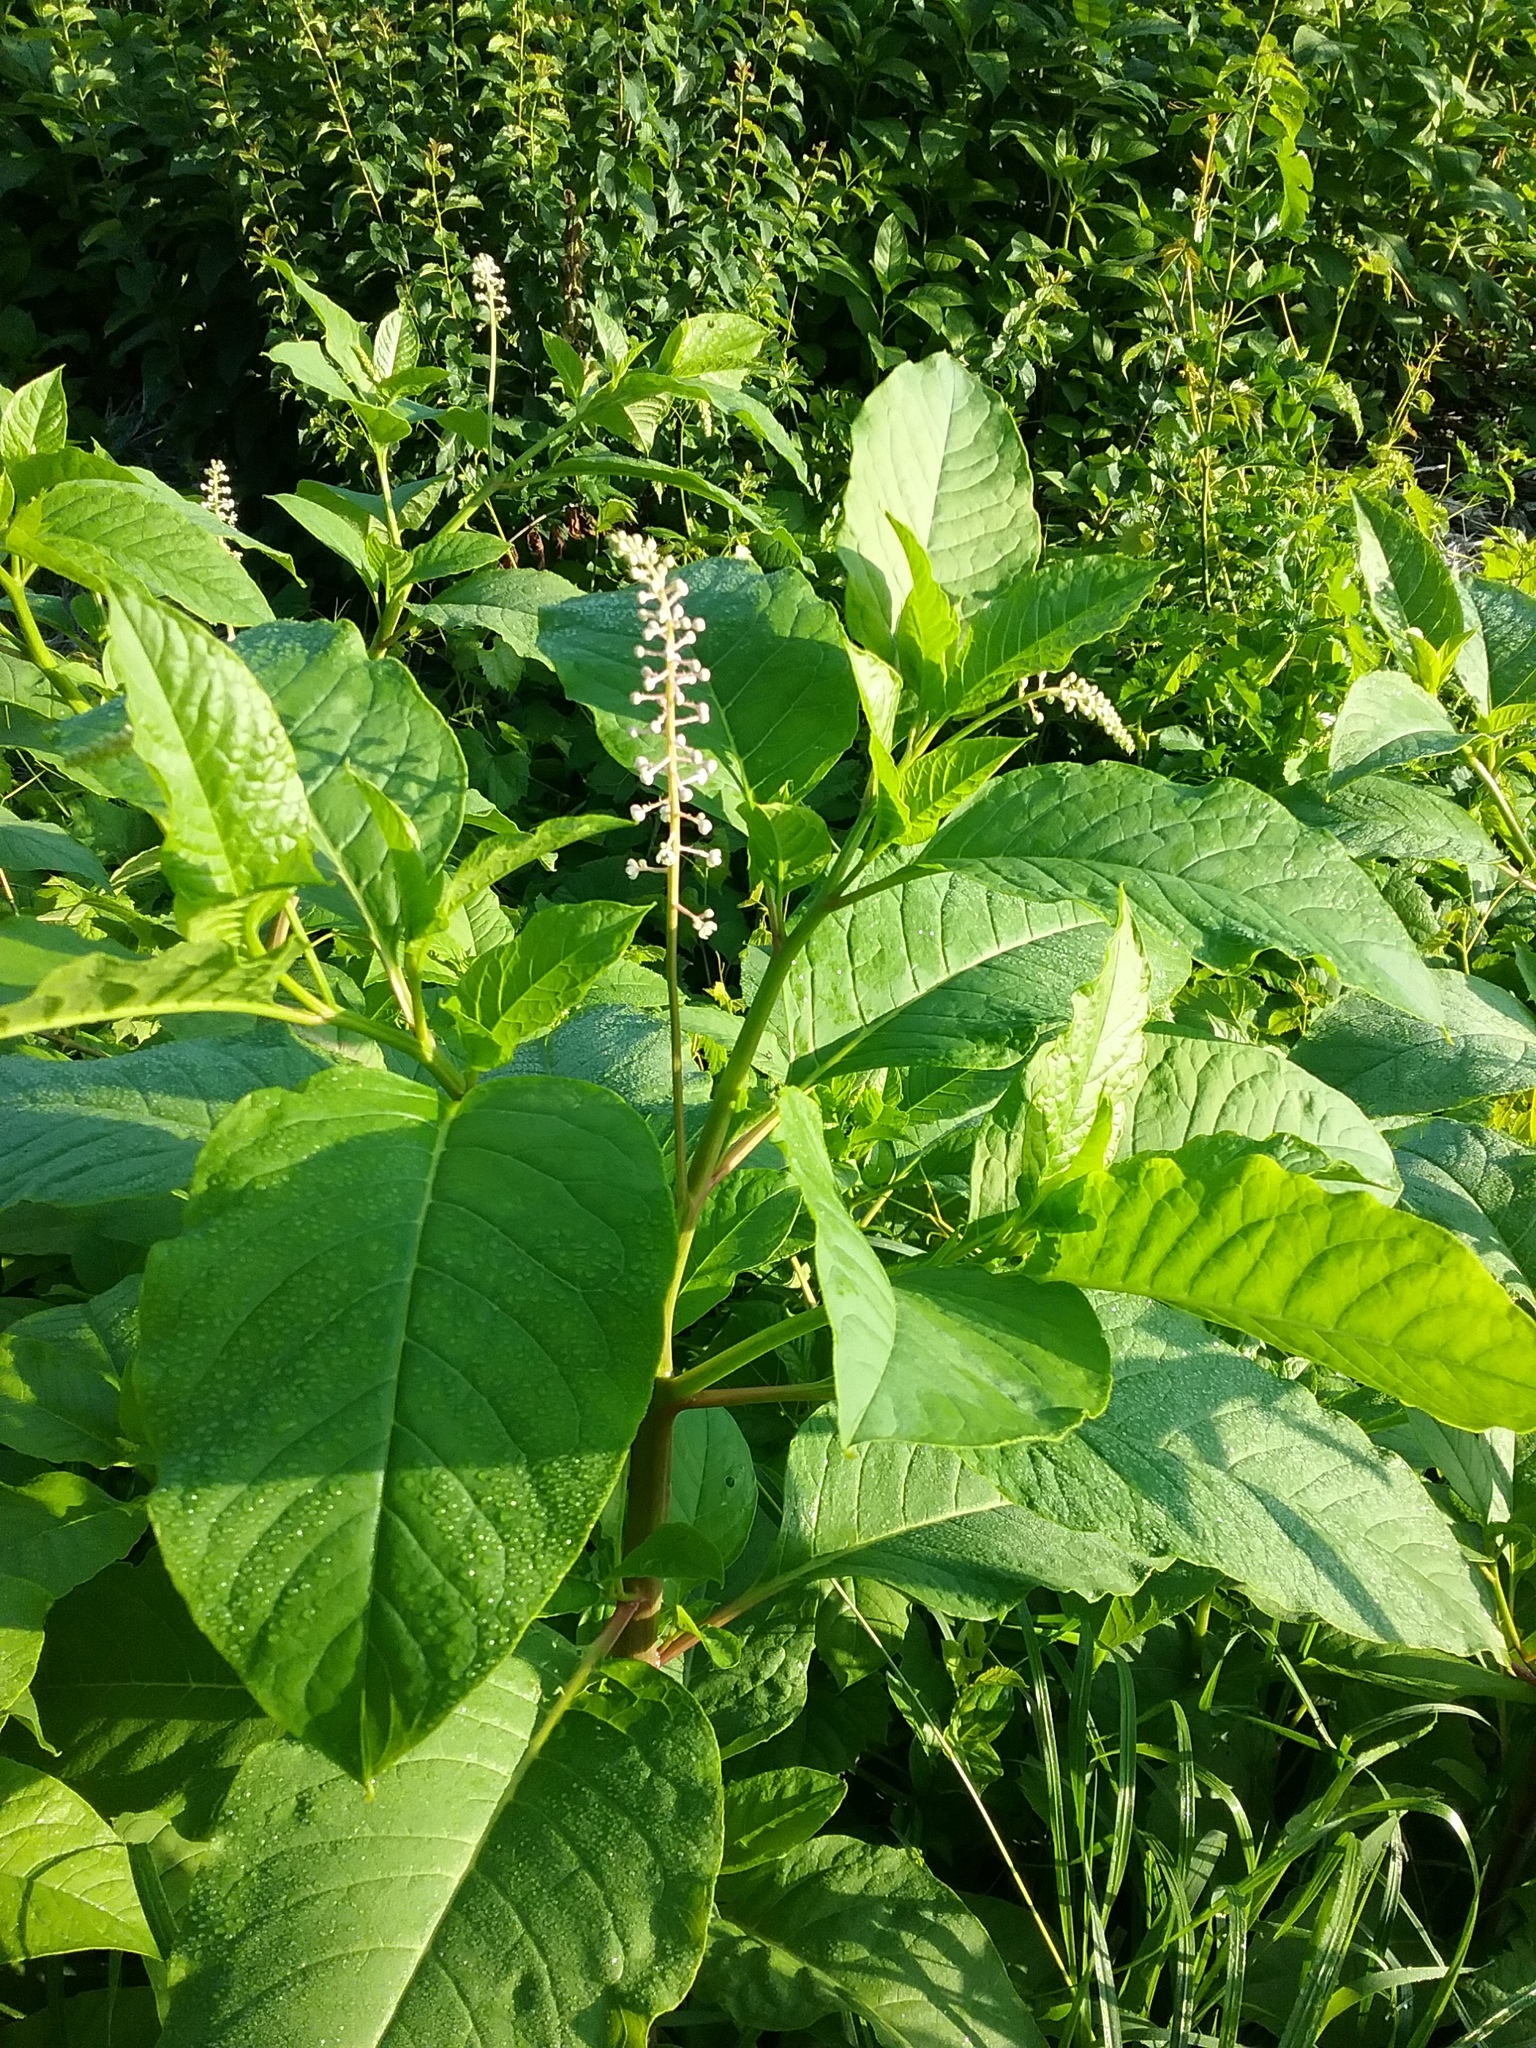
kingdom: Plantae
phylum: Tracheophyta
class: Magnoliopsida
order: Caryophyllales
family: Phytolaccaceae
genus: Phytolacca
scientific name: Phytolacca americana
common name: American pokeweed
